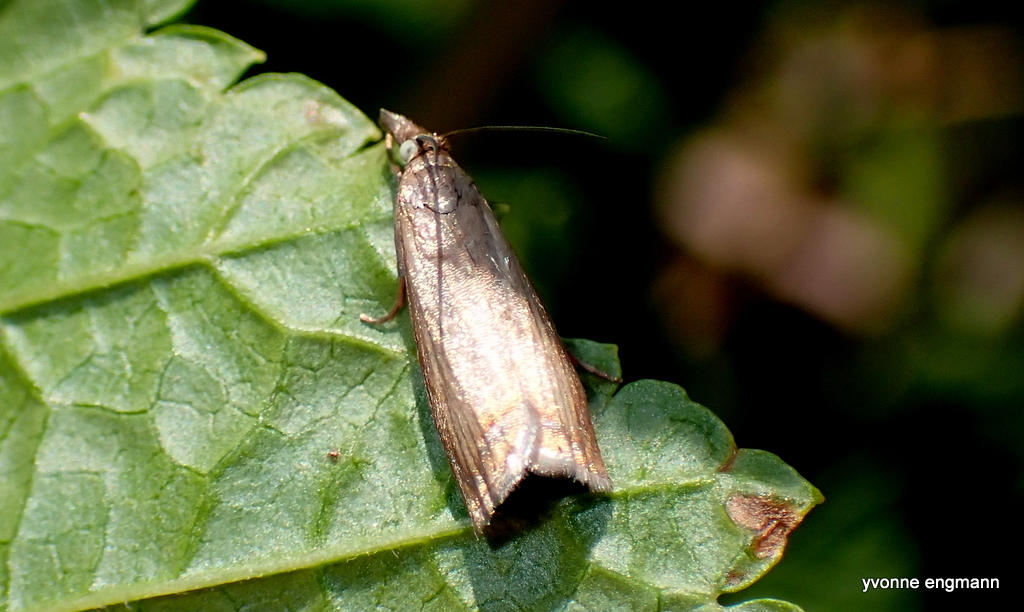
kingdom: Animalia
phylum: Arthropoda
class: Insecta
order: Lepidoptera
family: Crambidae
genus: Chrysoteuchia
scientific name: Chrysoteuchia culmella
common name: Garden grass-veneer
